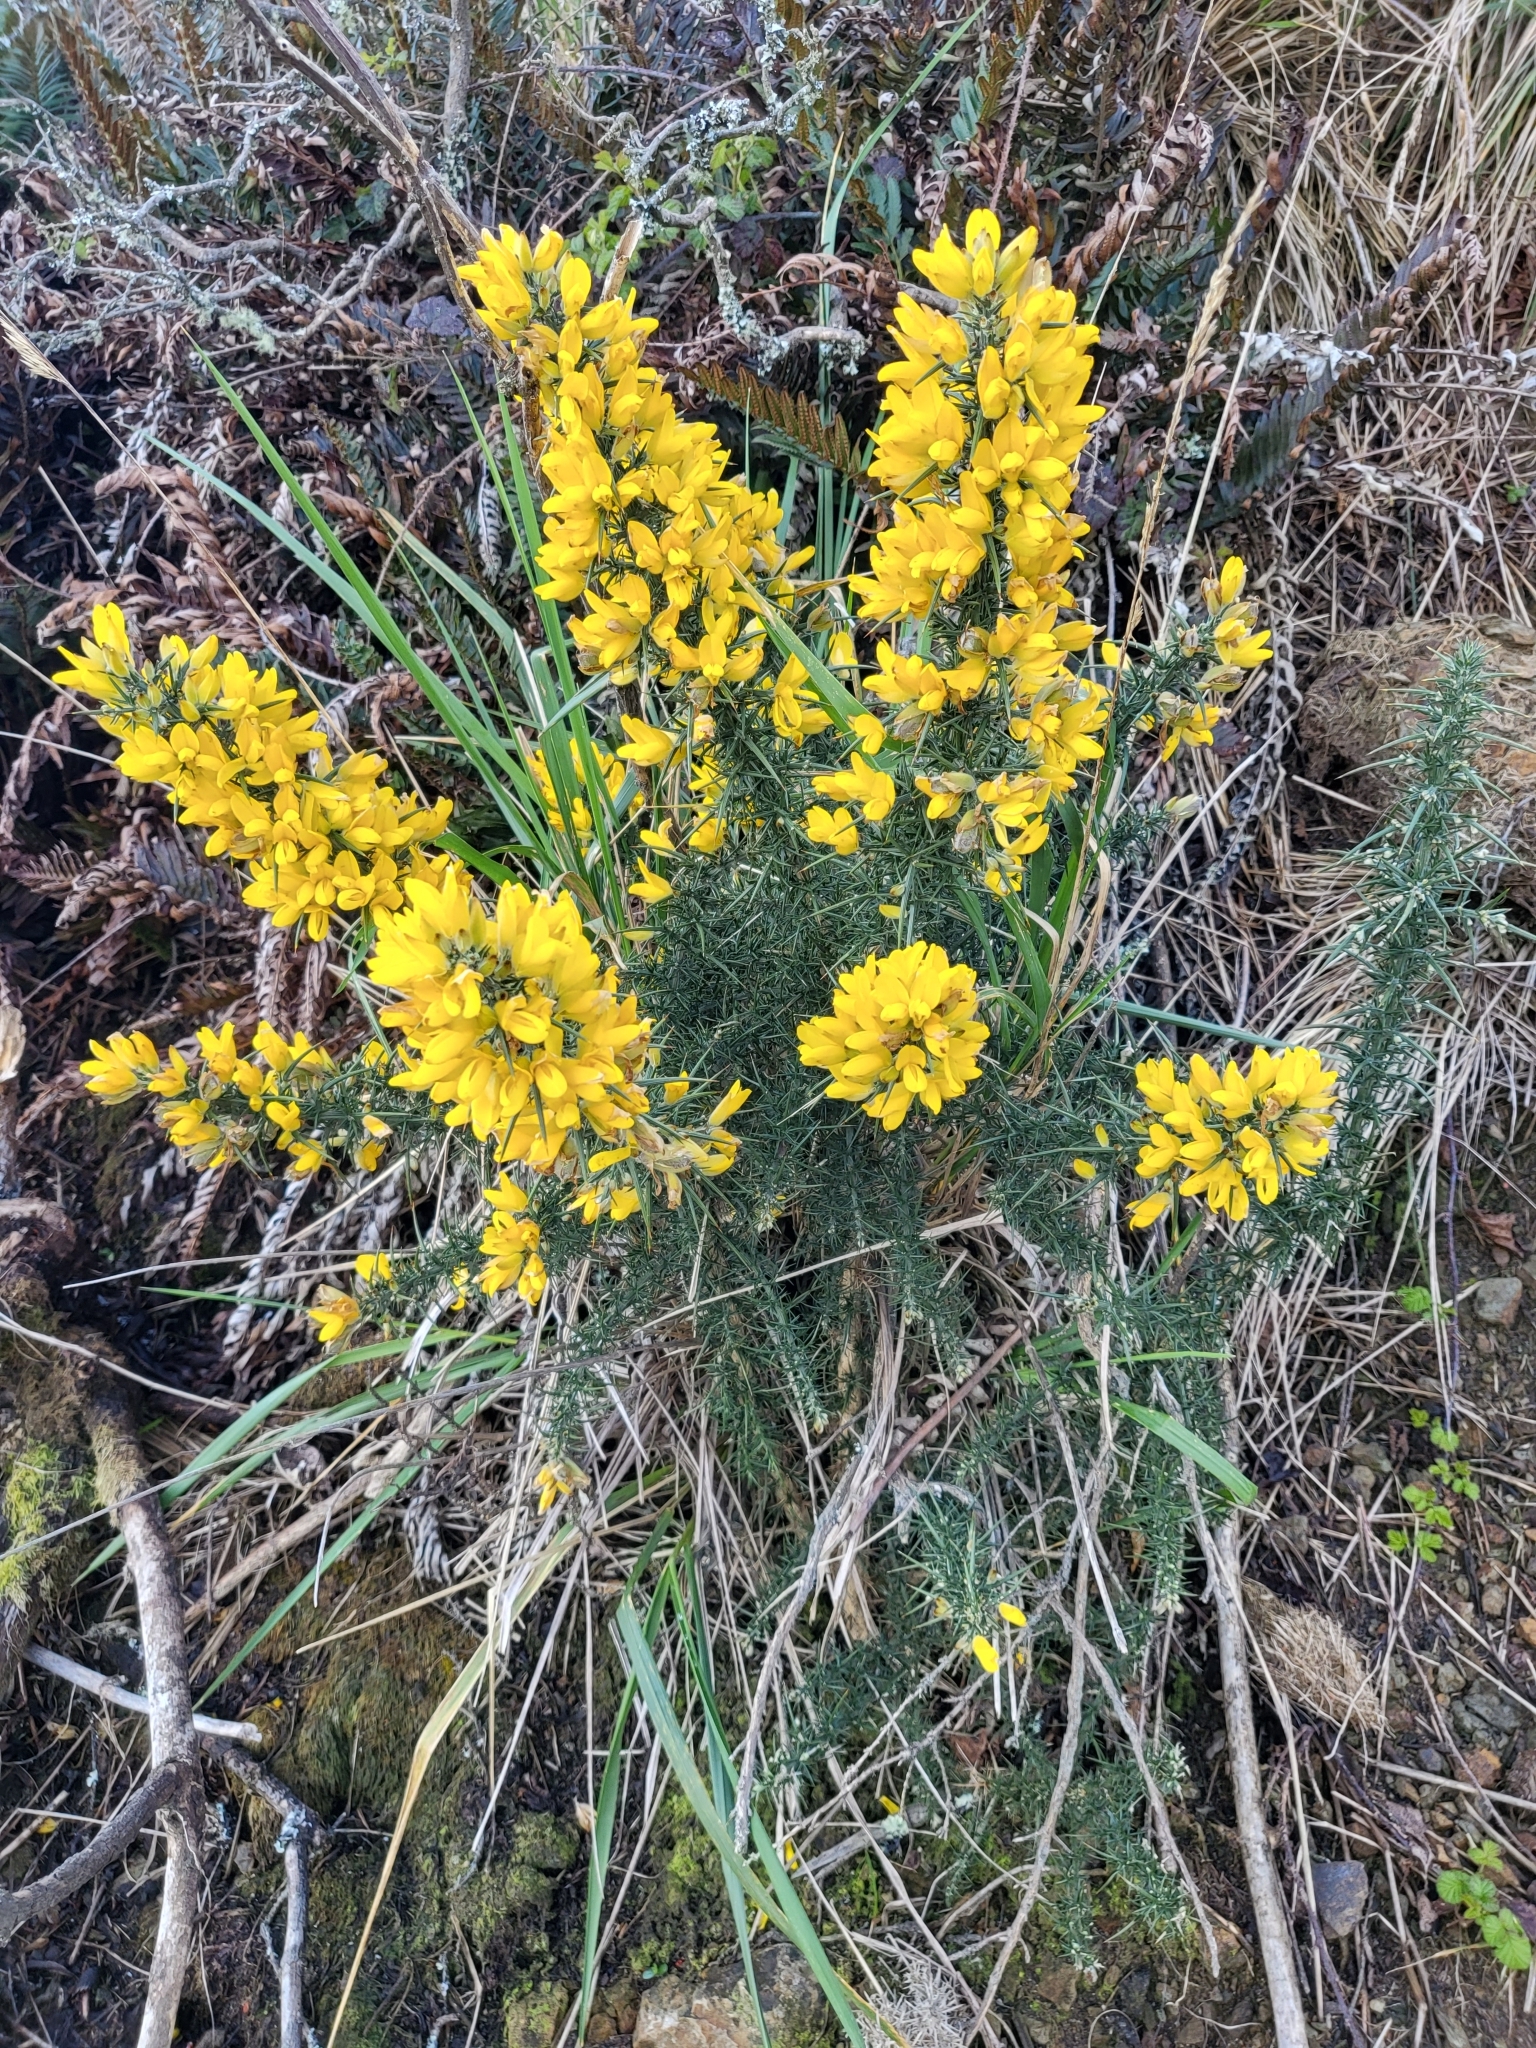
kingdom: Plantae
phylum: Tracheophyta
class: Magnoliopsida
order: Fabales
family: Fabaceae
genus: Ulex
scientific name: Ulex europaeus
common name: Common gorse
